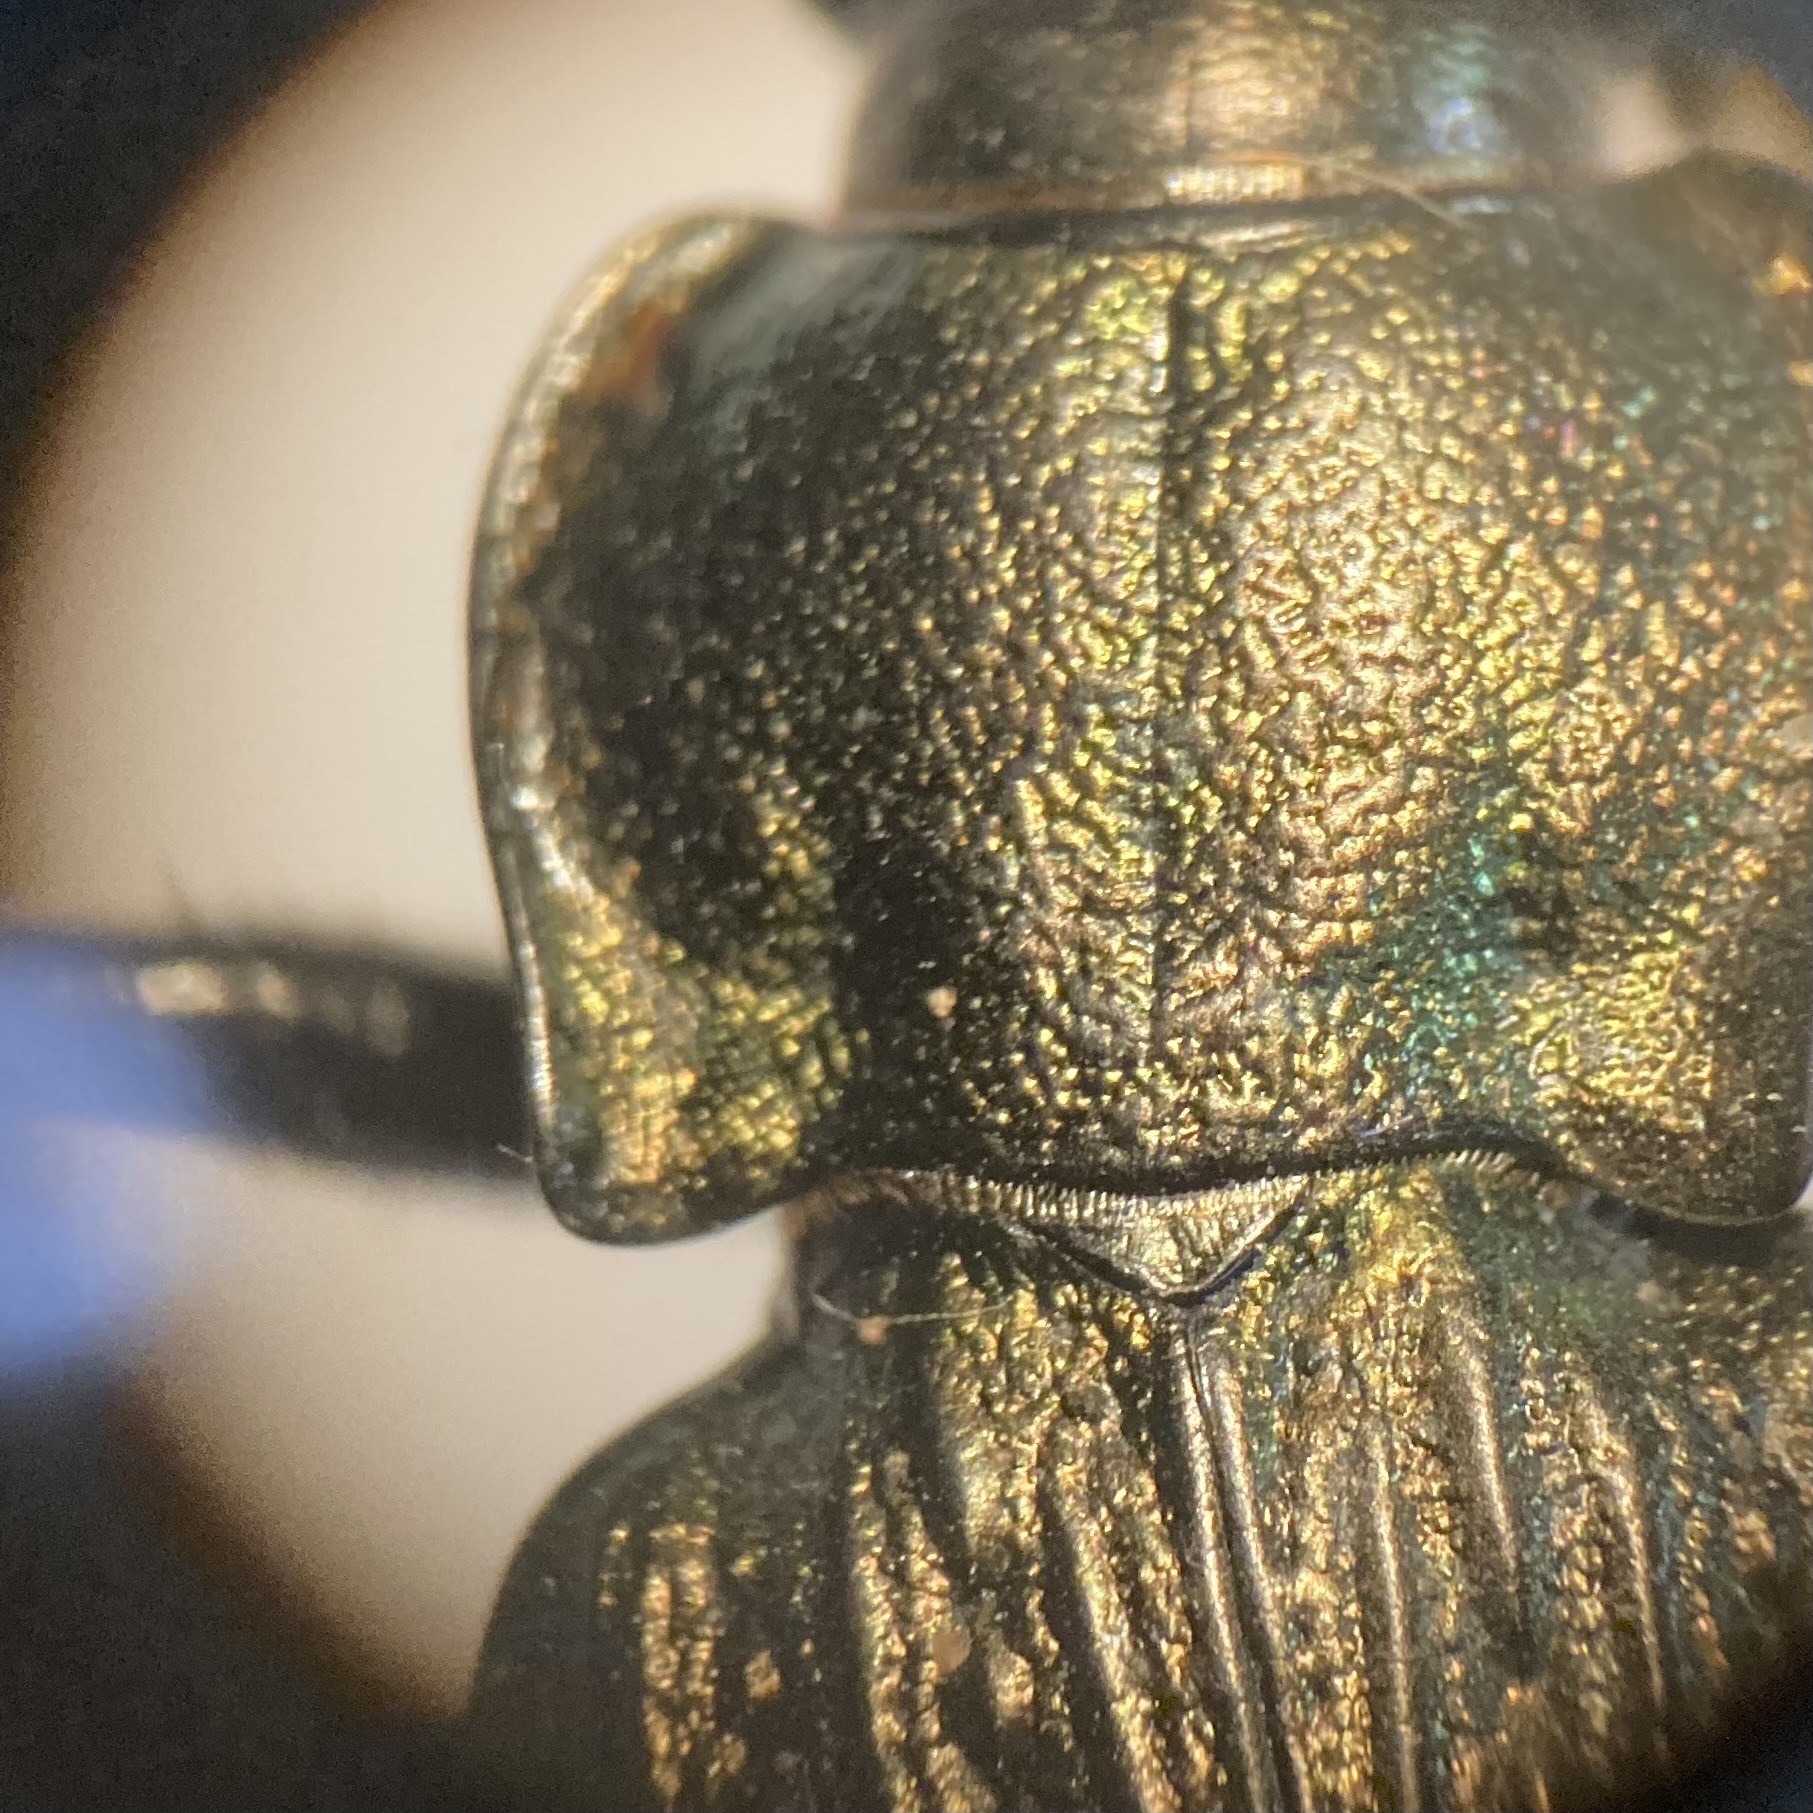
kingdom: Animalia
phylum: Arthropoda
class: Insecta
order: Coleoptera
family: Carabidae
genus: Carabus
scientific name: Carabus granulatus
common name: Granulate ground beetle
